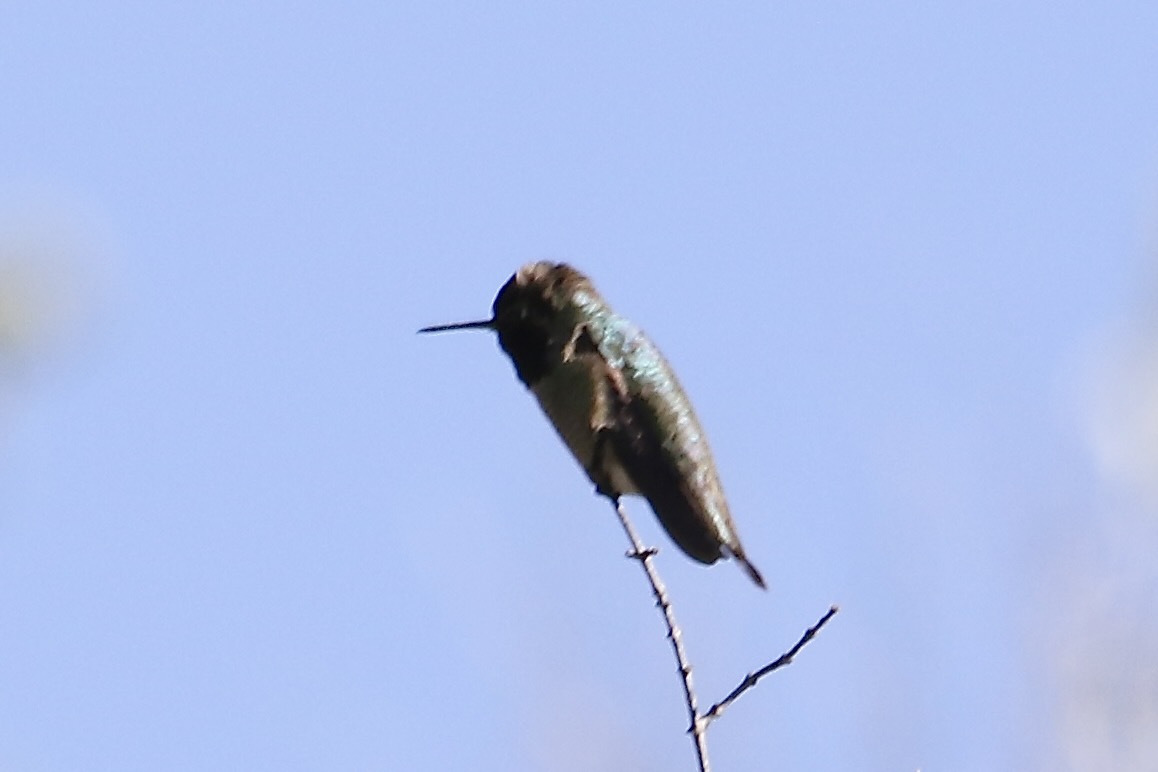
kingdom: Animalia
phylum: Chordata
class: Aves
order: Apodiformes
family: Trochilidae
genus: Calypte
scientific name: Calypte anna
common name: Anna's hummingbird
